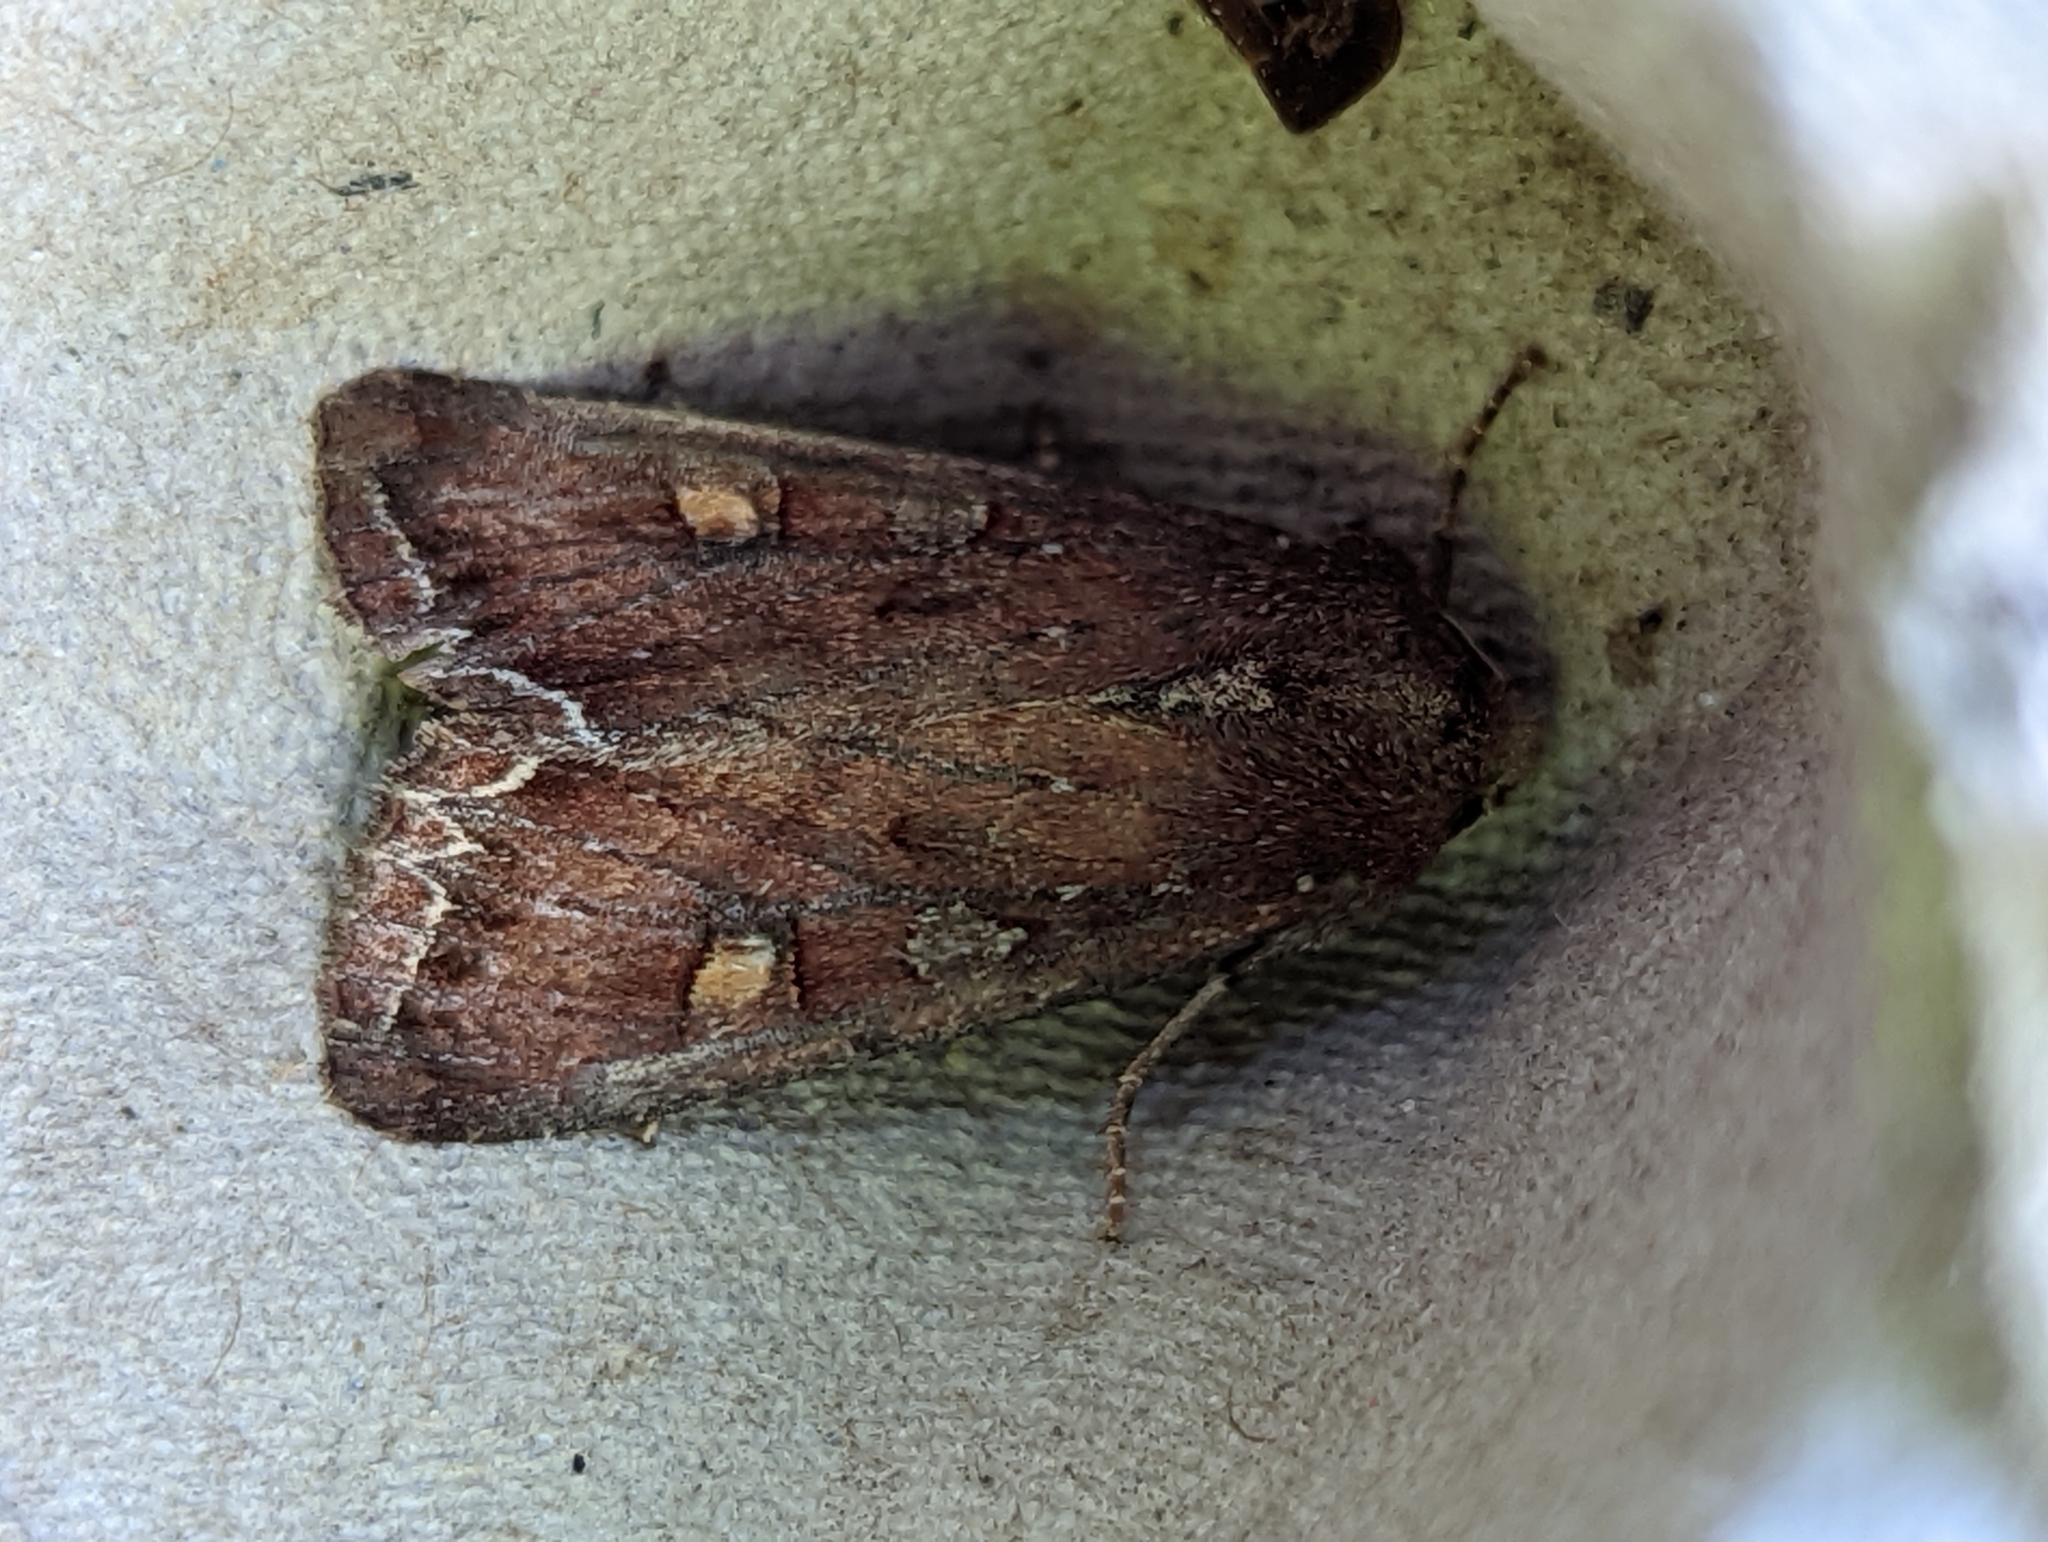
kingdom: Animalia
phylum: Arthropoda
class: Insecta
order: Lepidoptera
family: Noctuidae
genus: Lacanobia
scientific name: Lacanobia oleracea
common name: Bright-line brown-eye
